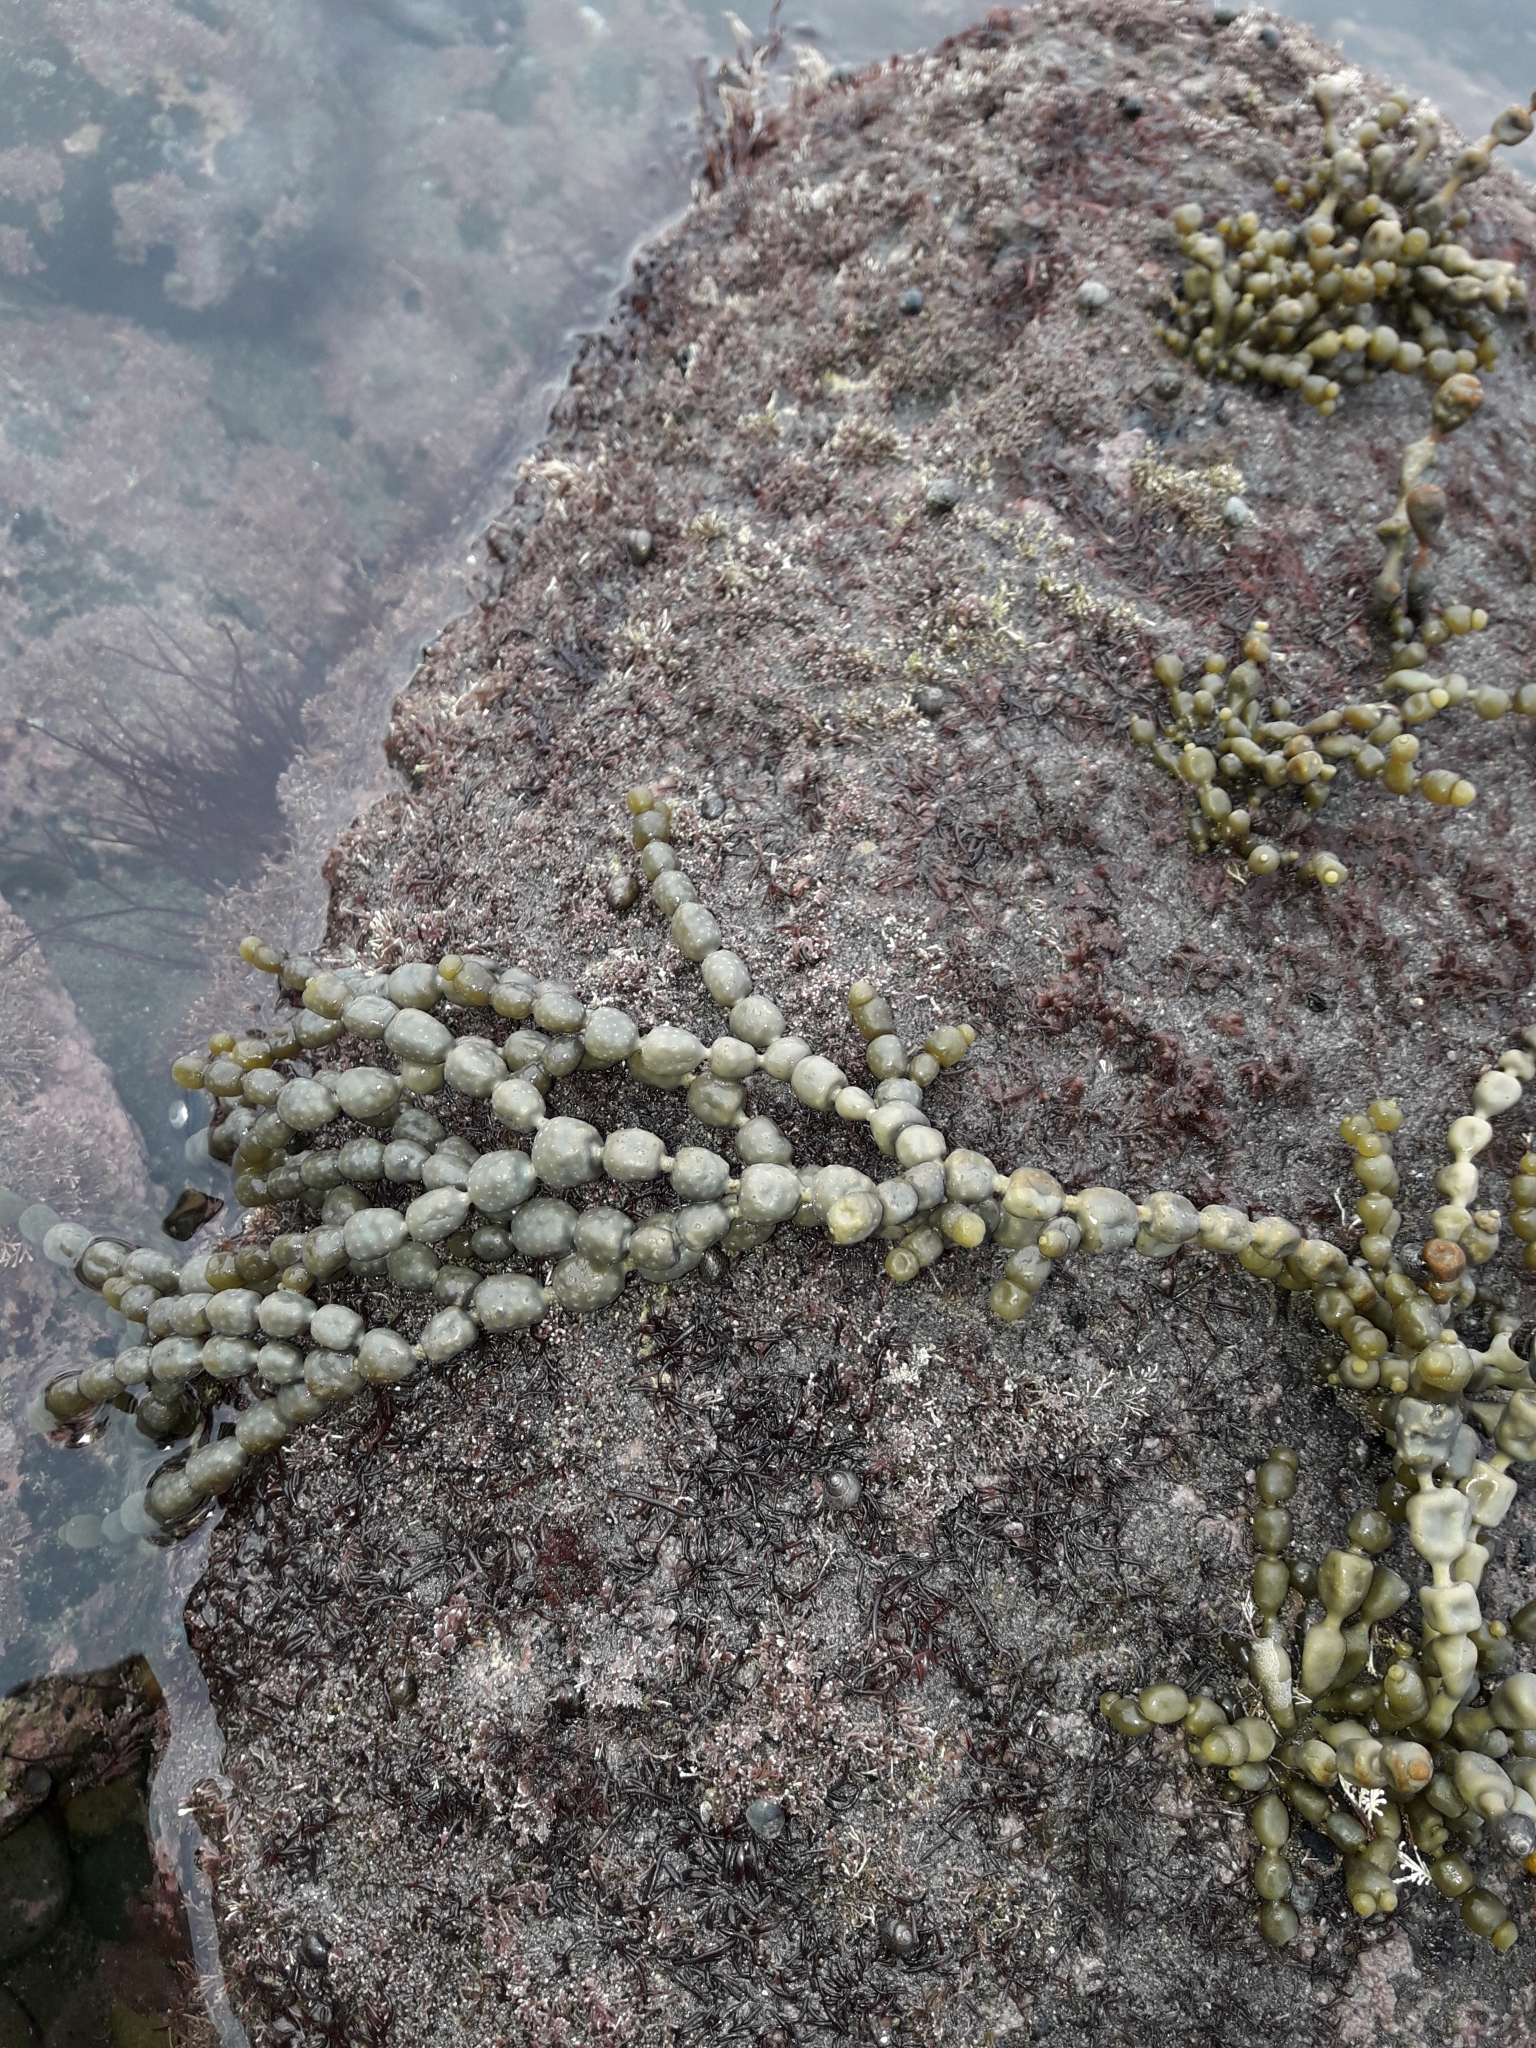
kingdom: Chromista
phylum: Ochrophyta
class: Phaeophyceae
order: Fucales
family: Hormosiraceae
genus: Hormosira
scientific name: Hormosira banksii
